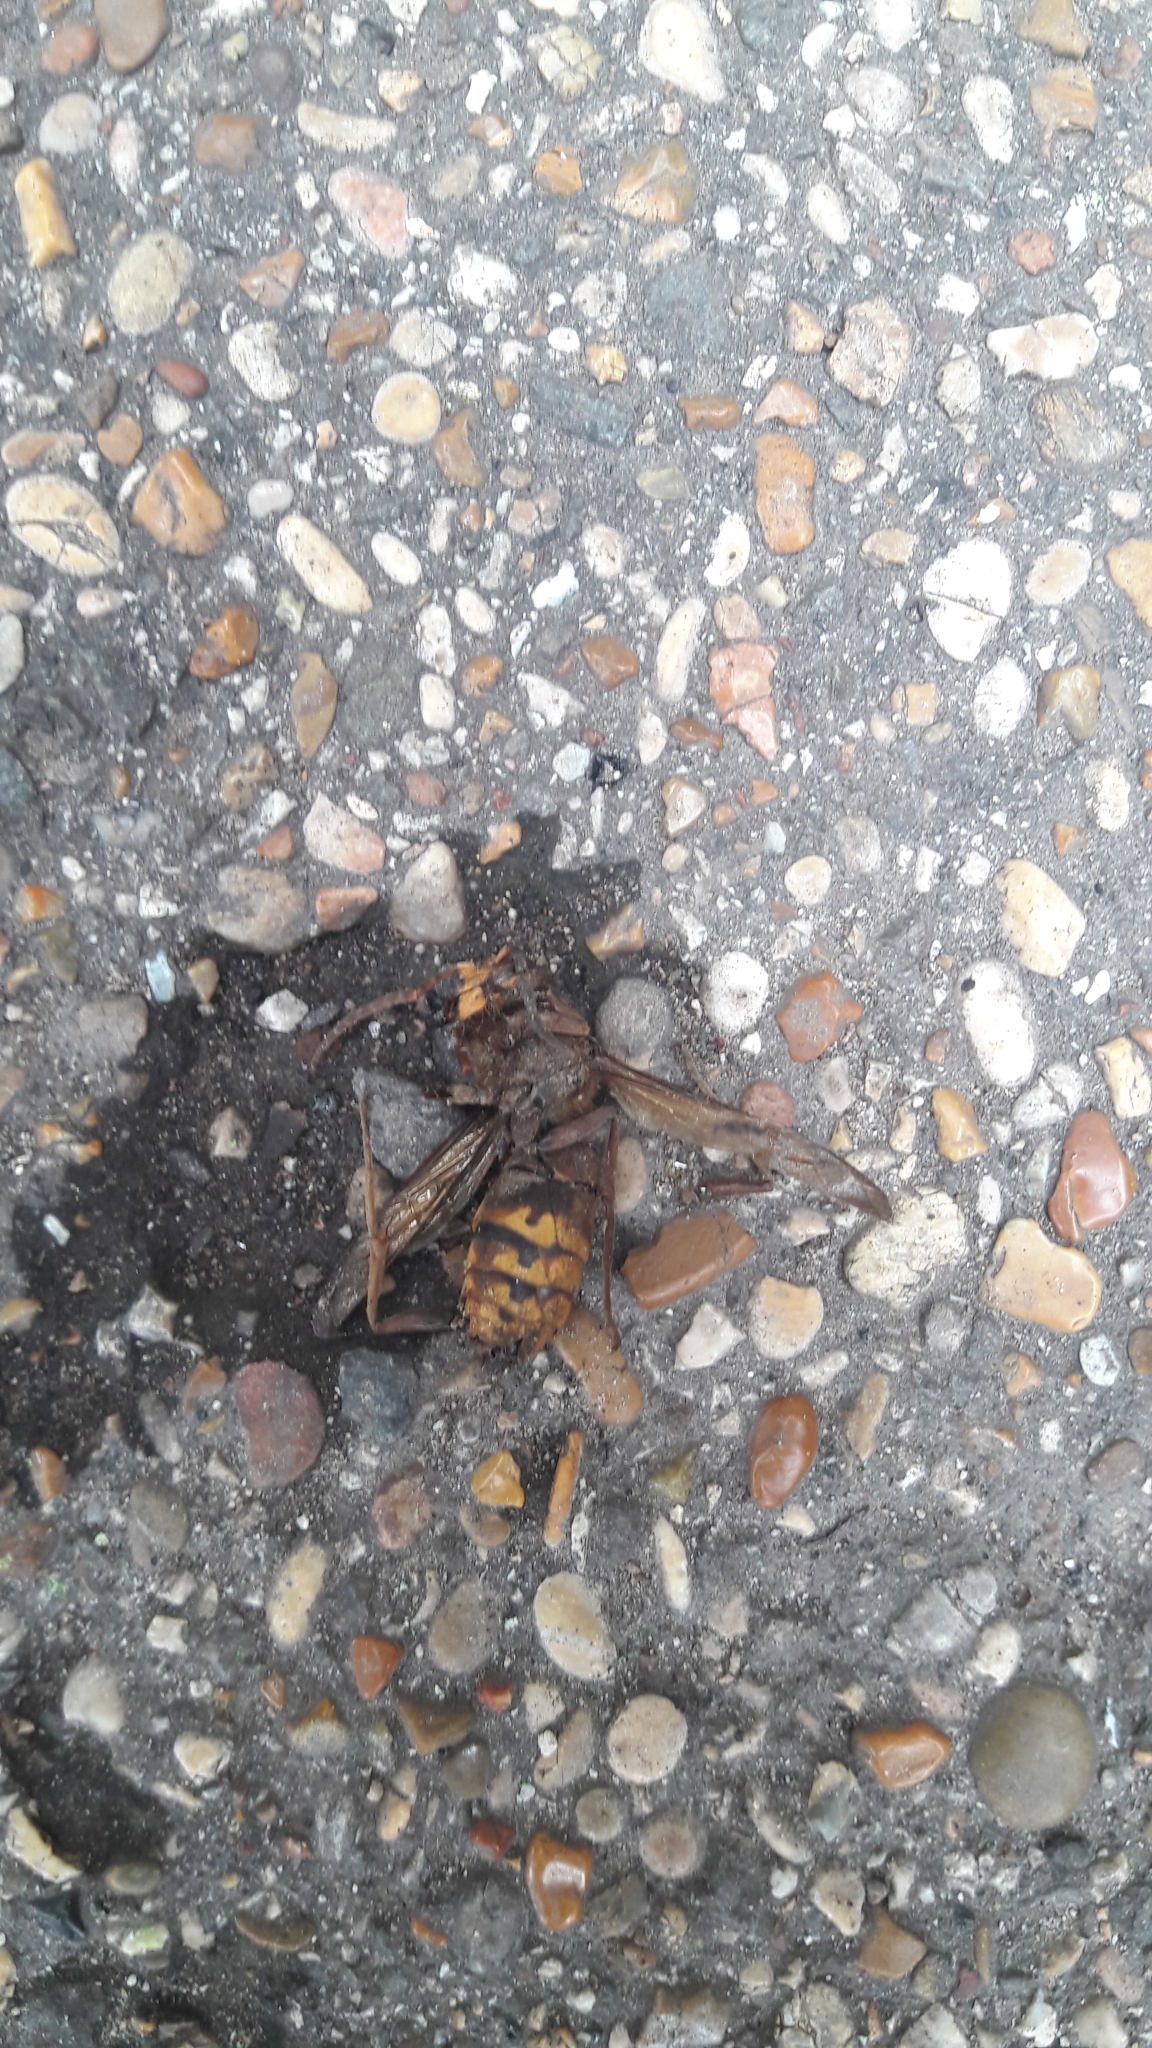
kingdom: Animalia
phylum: Arthropoda
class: Insecta
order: Hymenoptera
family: Vespidae
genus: Vespa
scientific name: Vespa crabro
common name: Hornet
